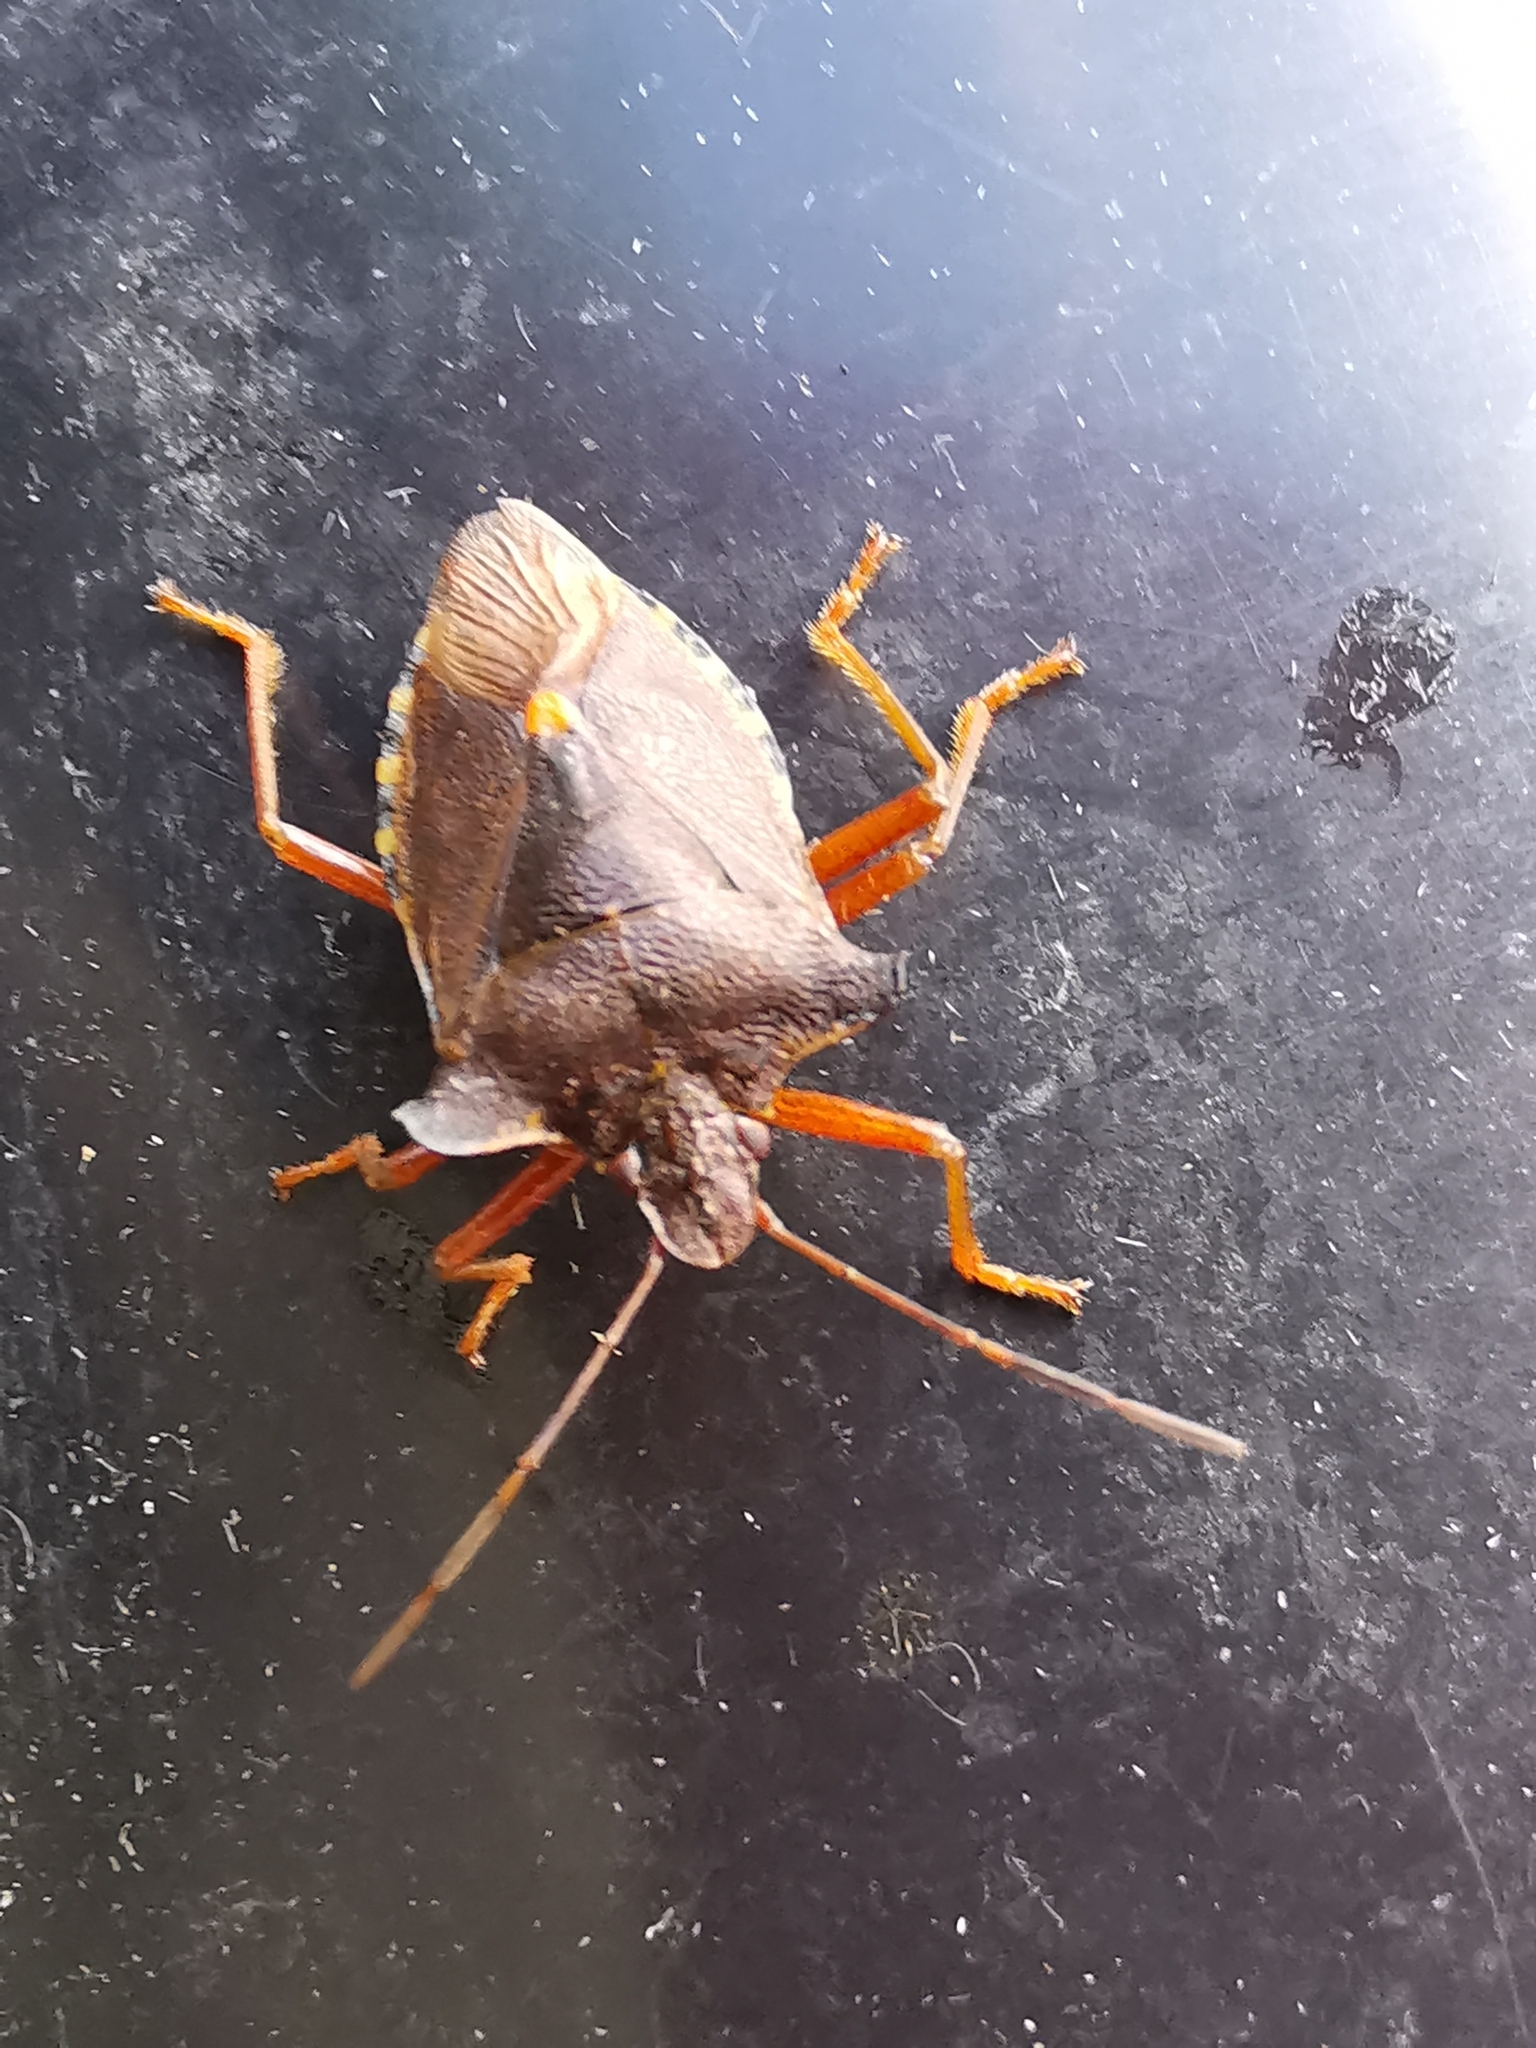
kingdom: Animalia
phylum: Arthropoda
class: Insecta
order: Hemiptera
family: Pentatomidae
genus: Pentatoma
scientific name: Pentatoma rufipes
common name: Forest bug
